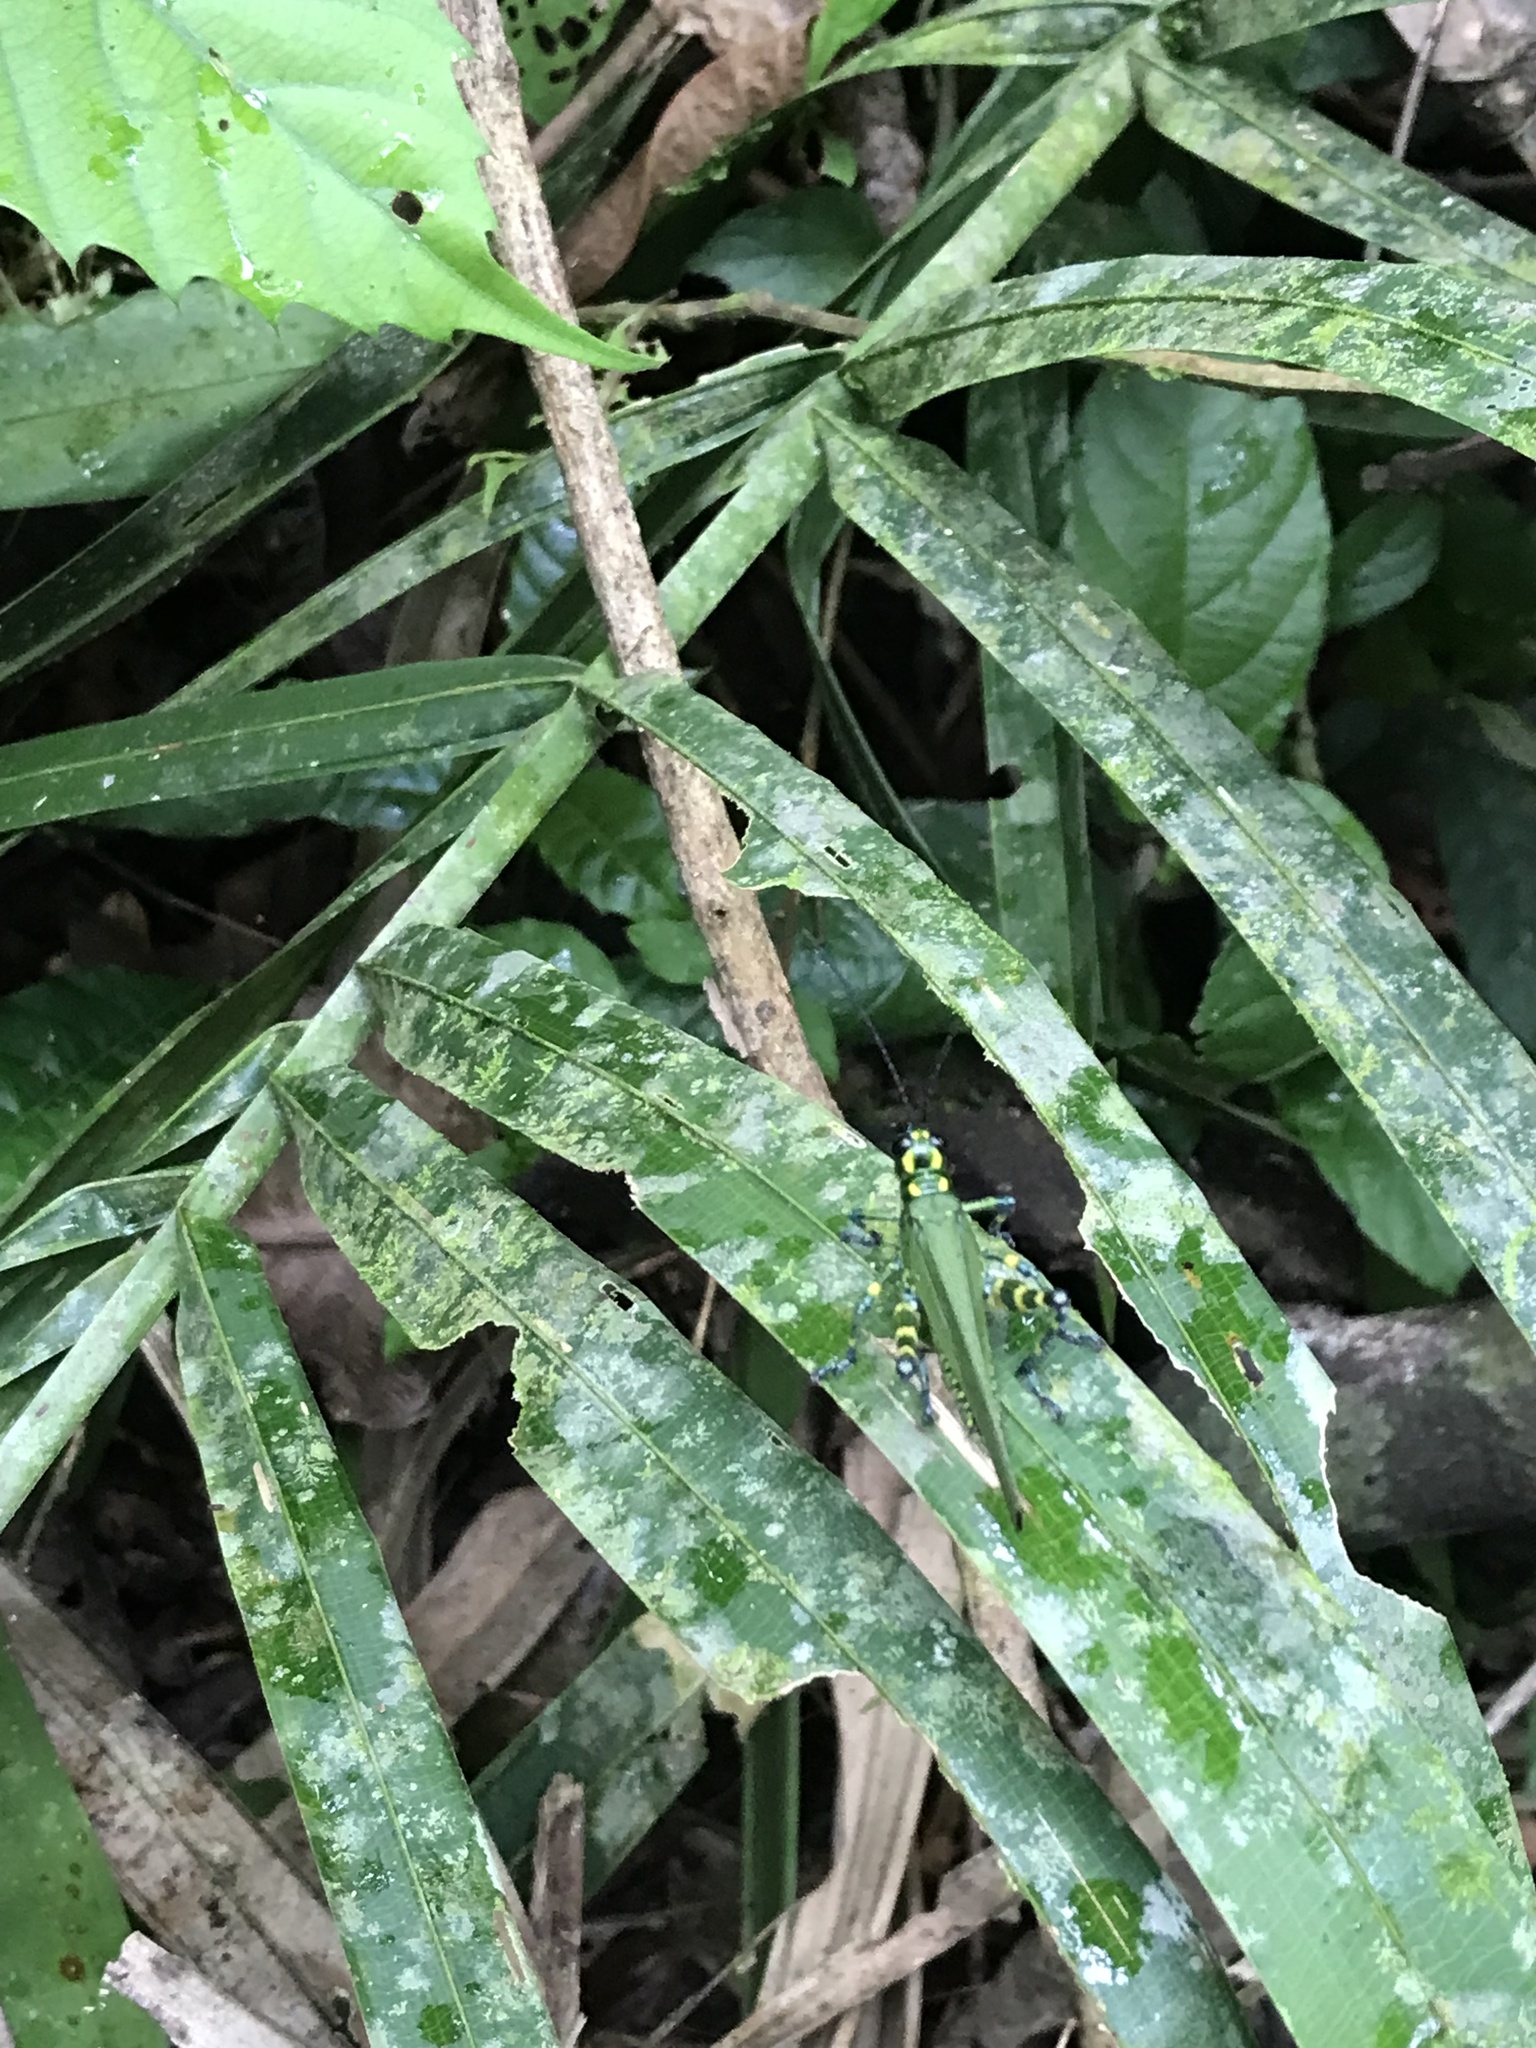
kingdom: Animalia
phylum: Arthropoda
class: Insecta
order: Orthoptera
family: Romaleidae
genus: Chromacris
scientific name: Chromacris psittacus
